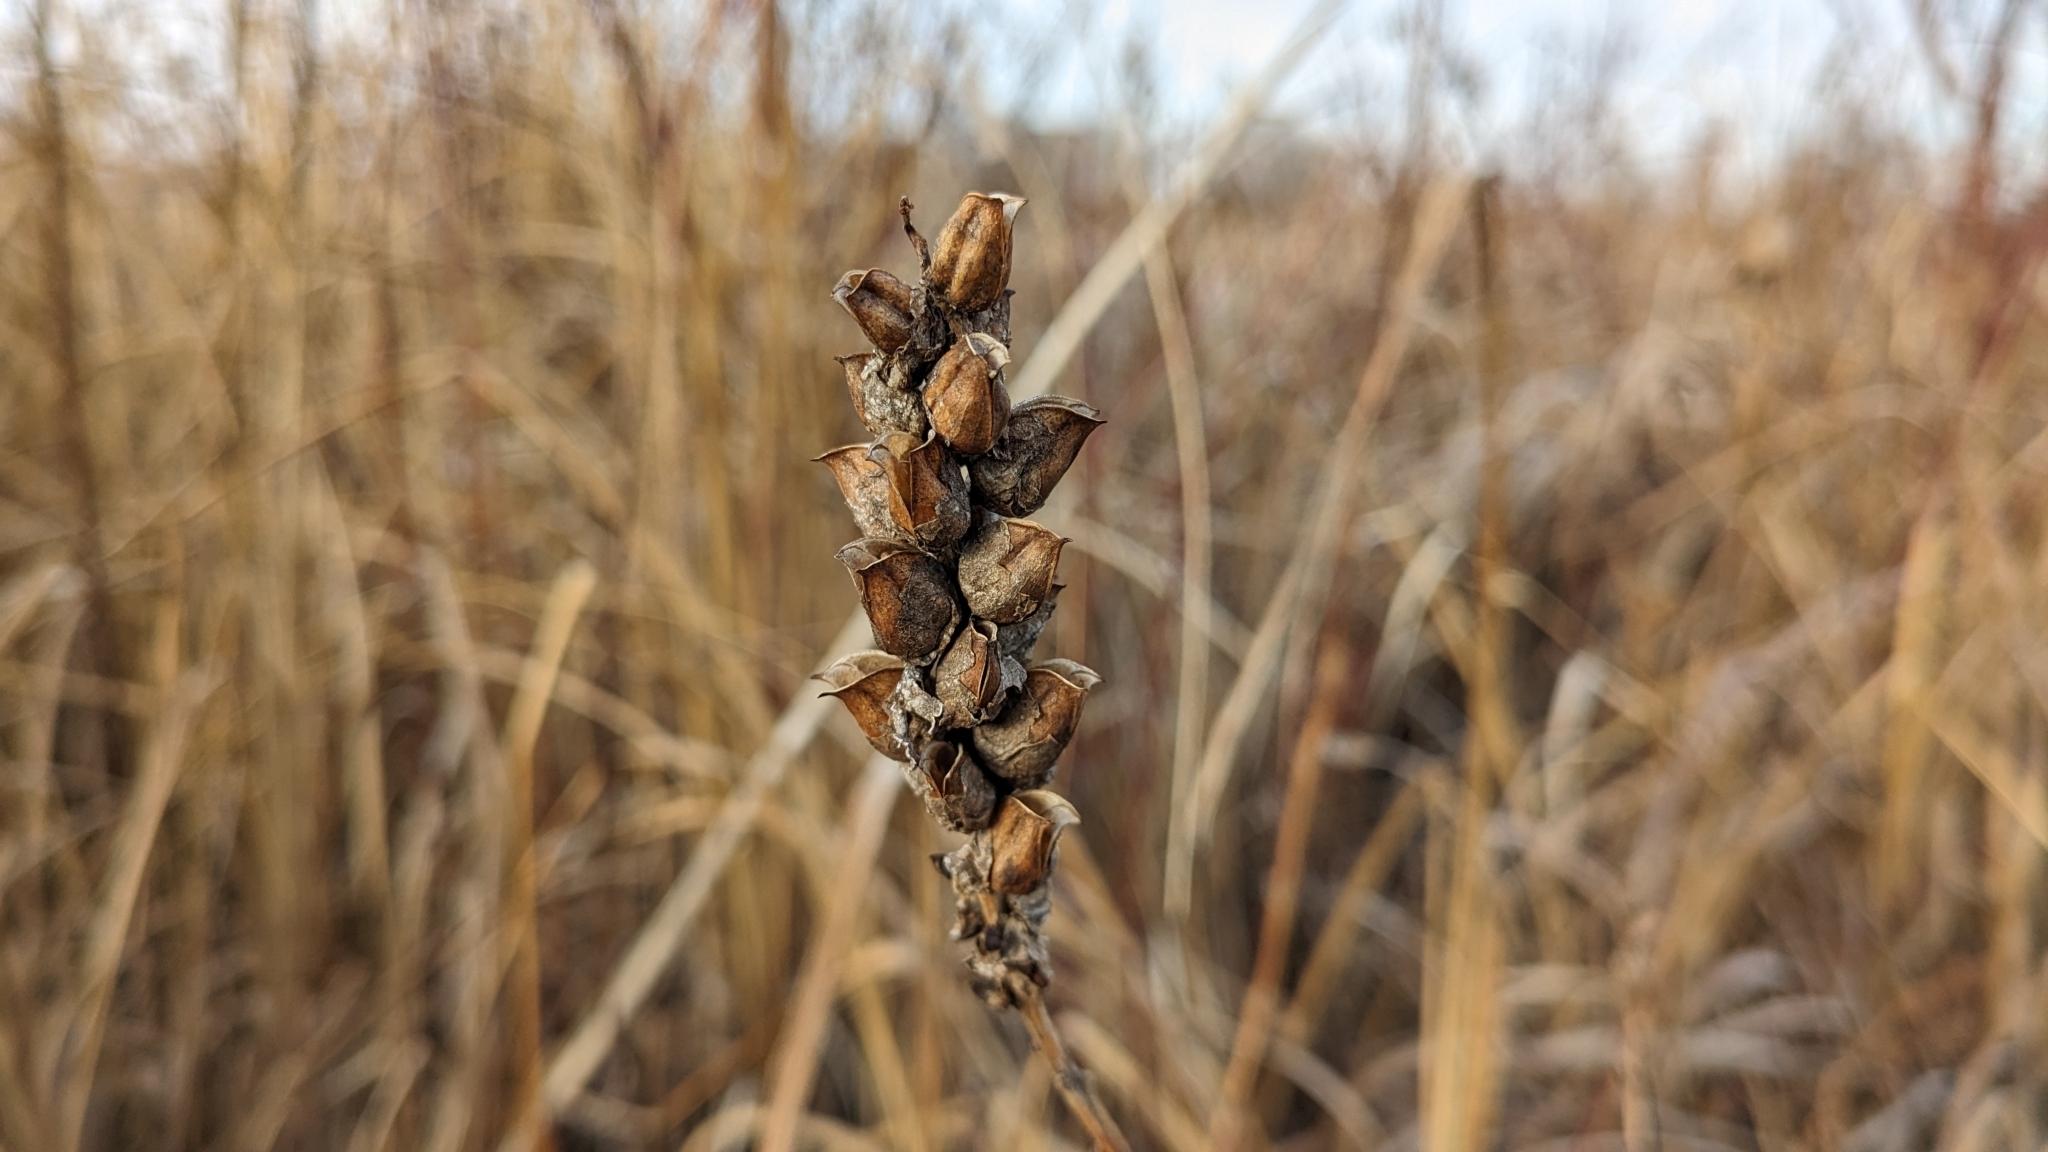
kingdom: Plantae
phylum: Tracheophyta
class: Magnoliopsida
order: Lamiales
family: Orobanchaceae
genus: Pedicularis
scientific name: Pedicularis lanceolata
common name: Swamp lousewort
